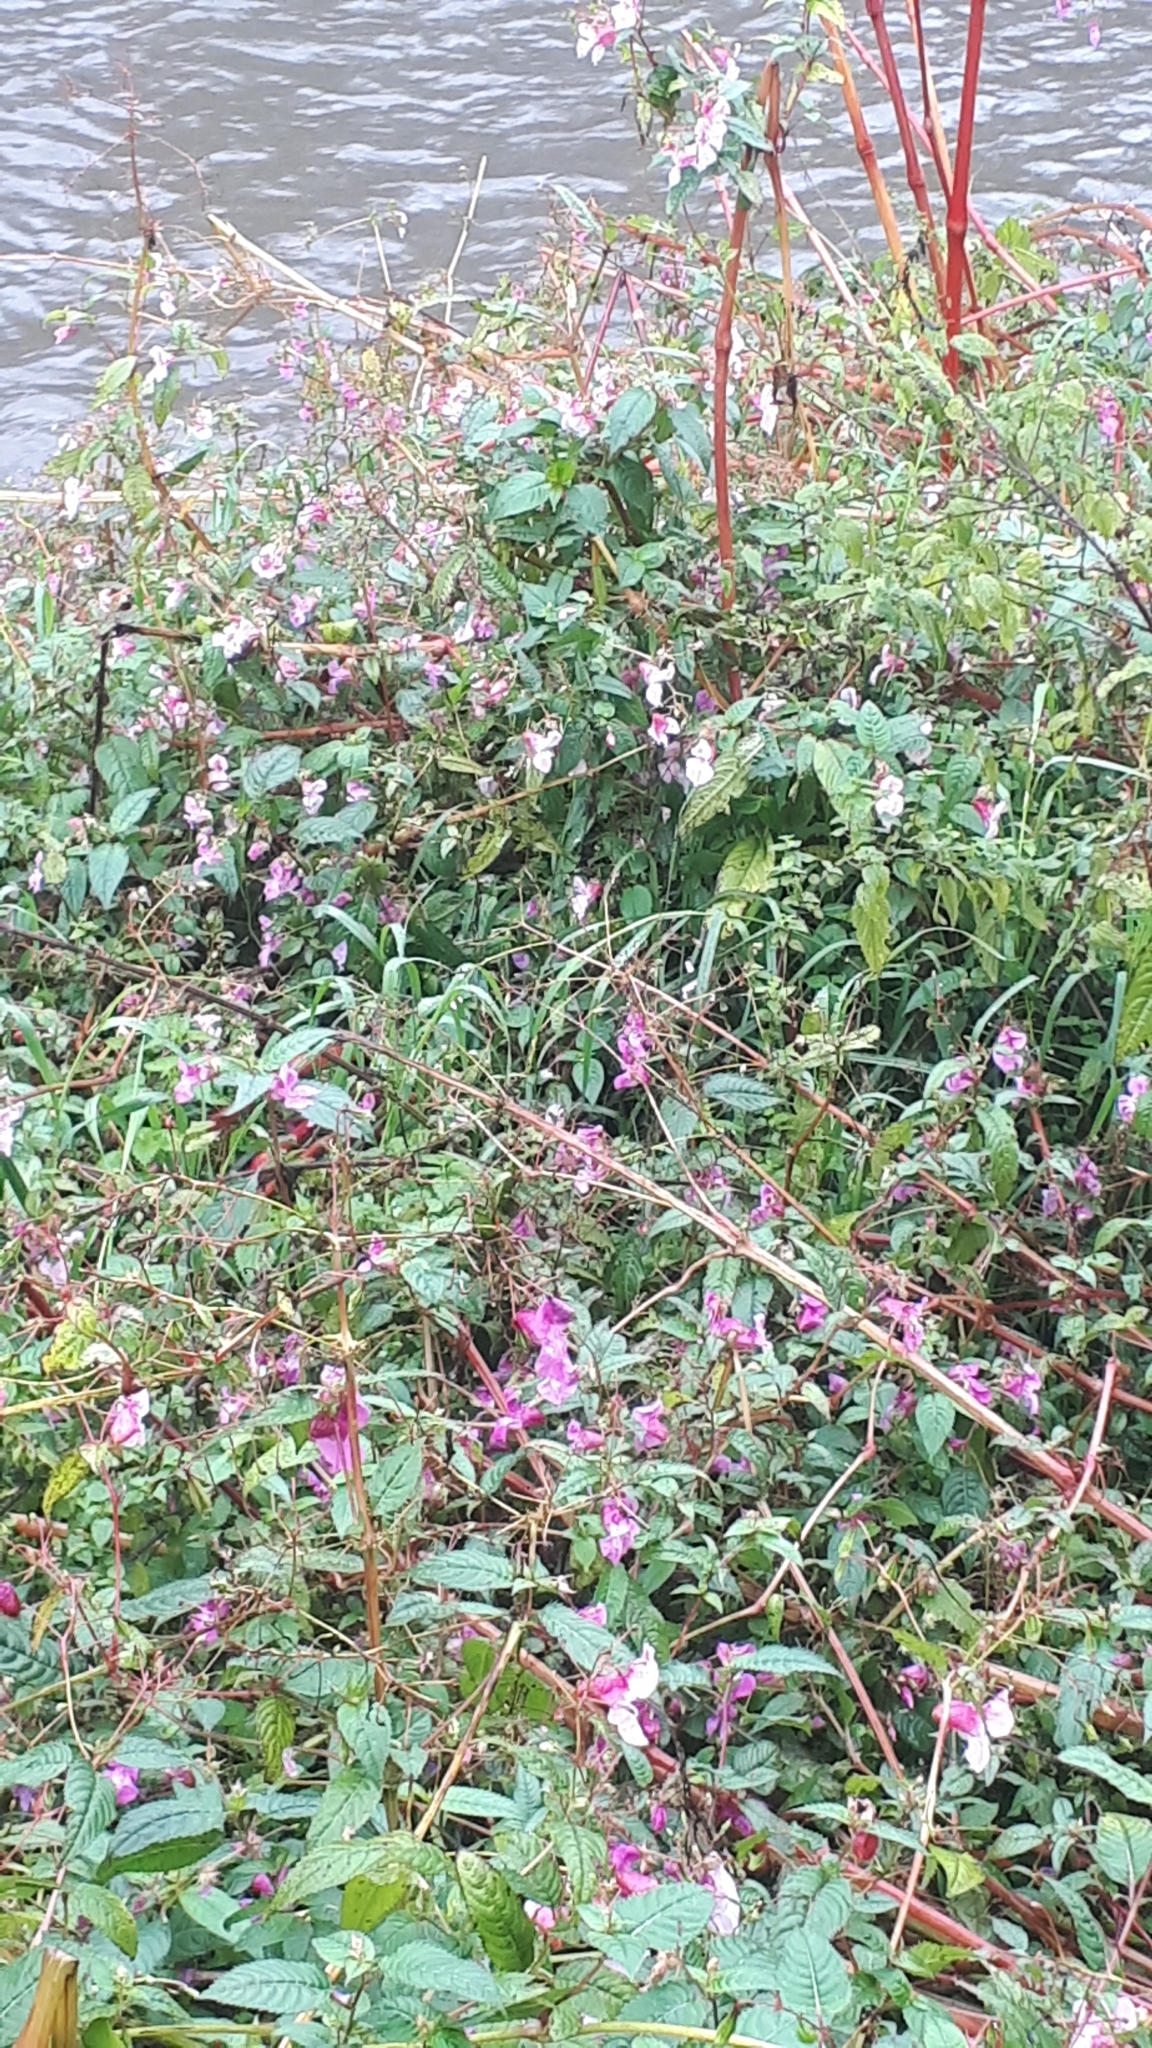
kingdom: Plantae
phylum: Tracheophyta
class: Magnoliopsida
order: Ericales
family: Balsaminaceae
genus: Impatiens
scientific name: Impatiens glandulifera
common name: Himalayan balsam
